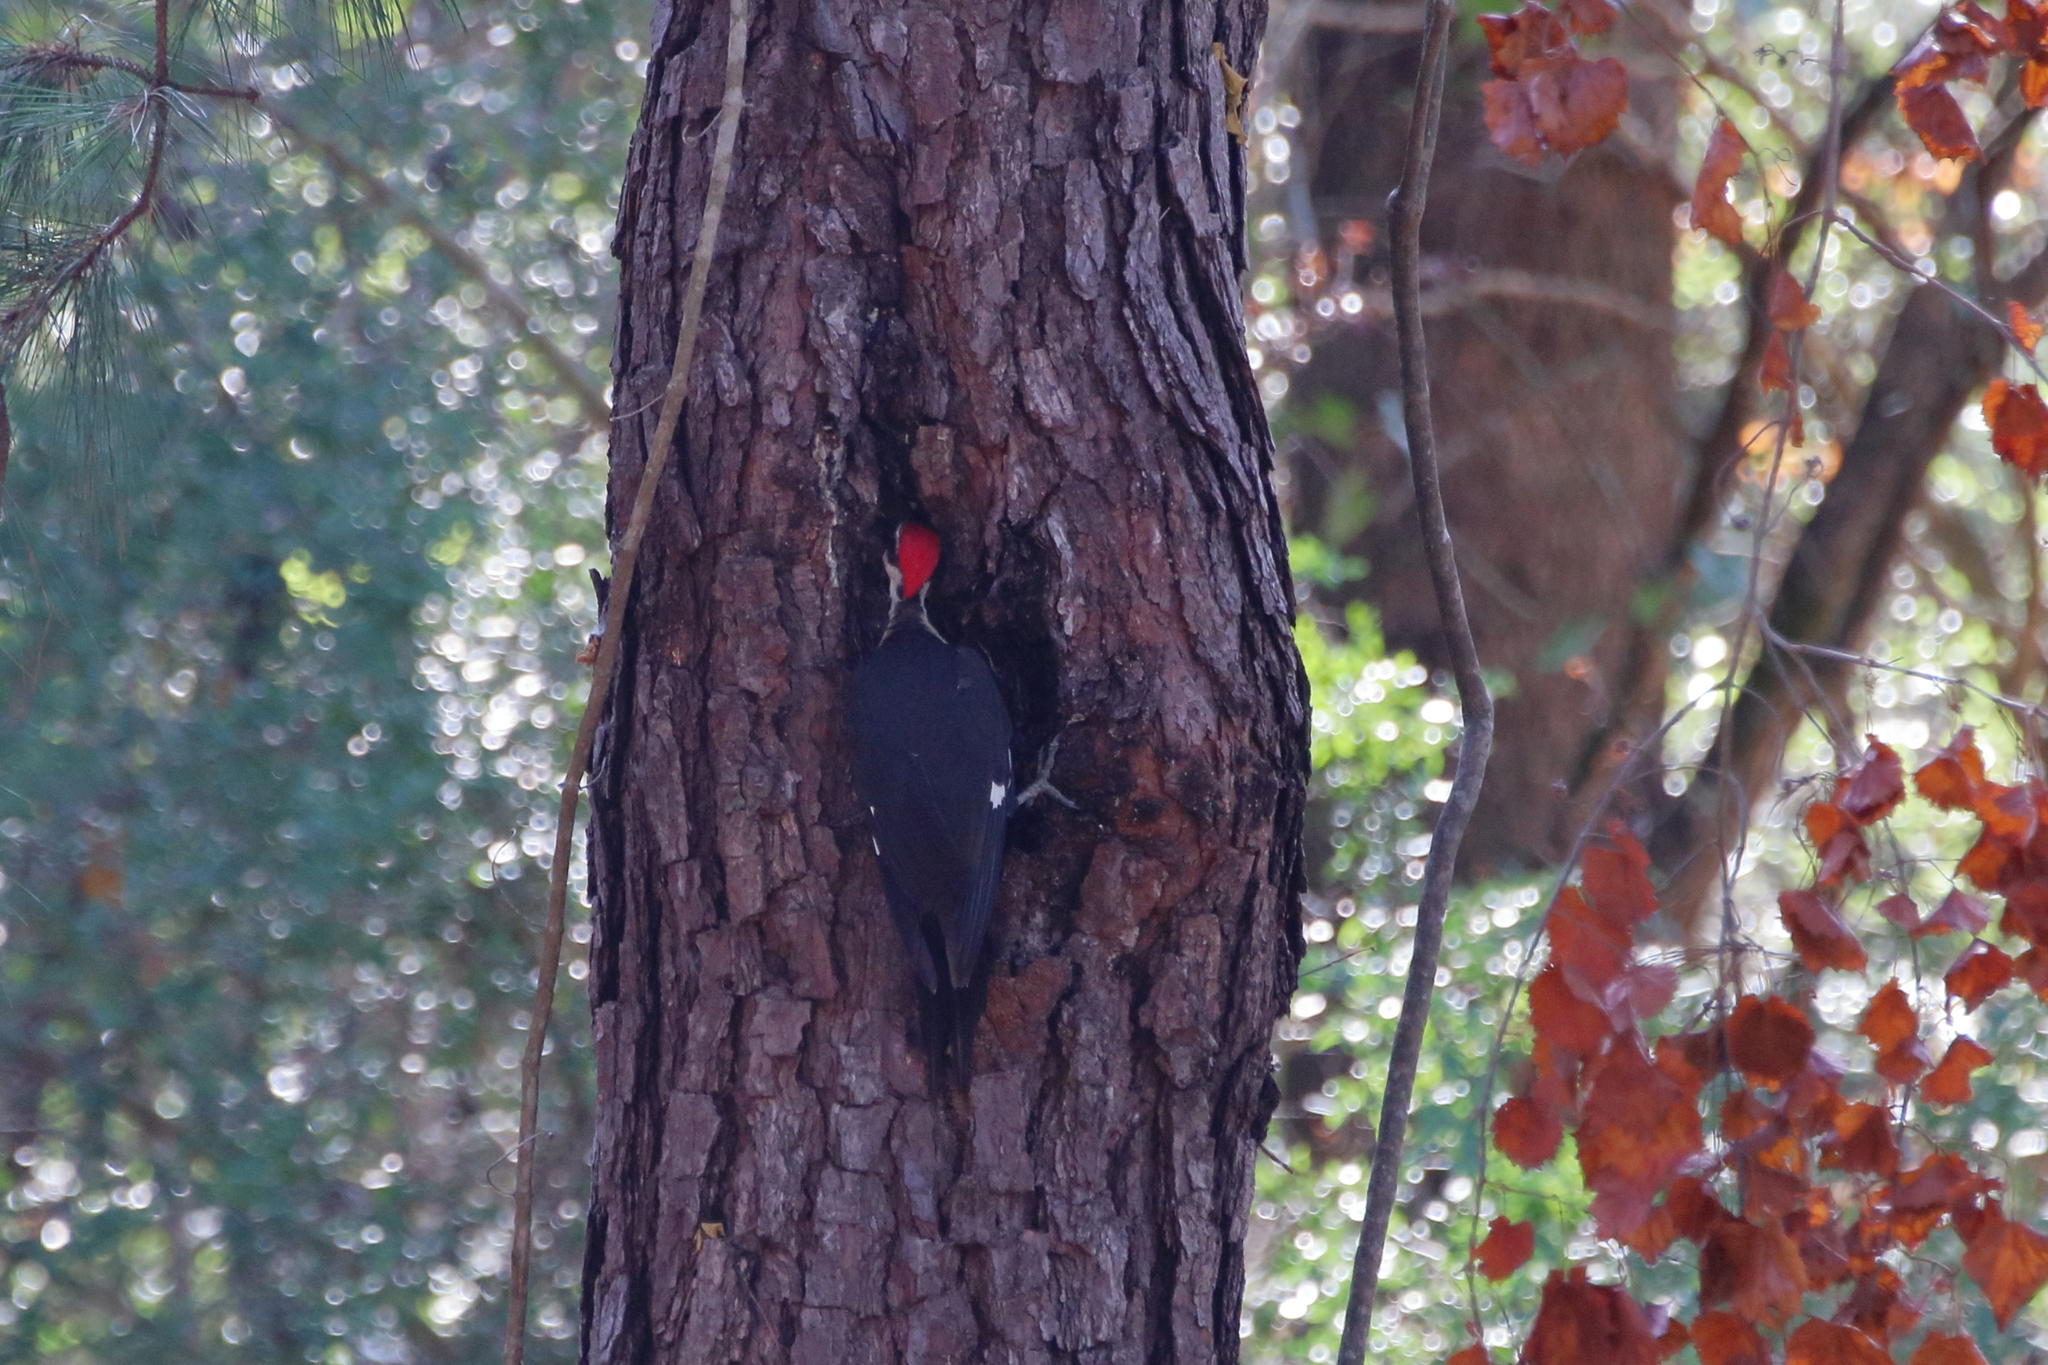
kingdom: Animalia
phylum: Chordata
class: Aves
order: Piciformes
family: Picidae
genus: Dryocopus
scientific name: Dryocopus pileatus
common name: Pileated woodpecker
